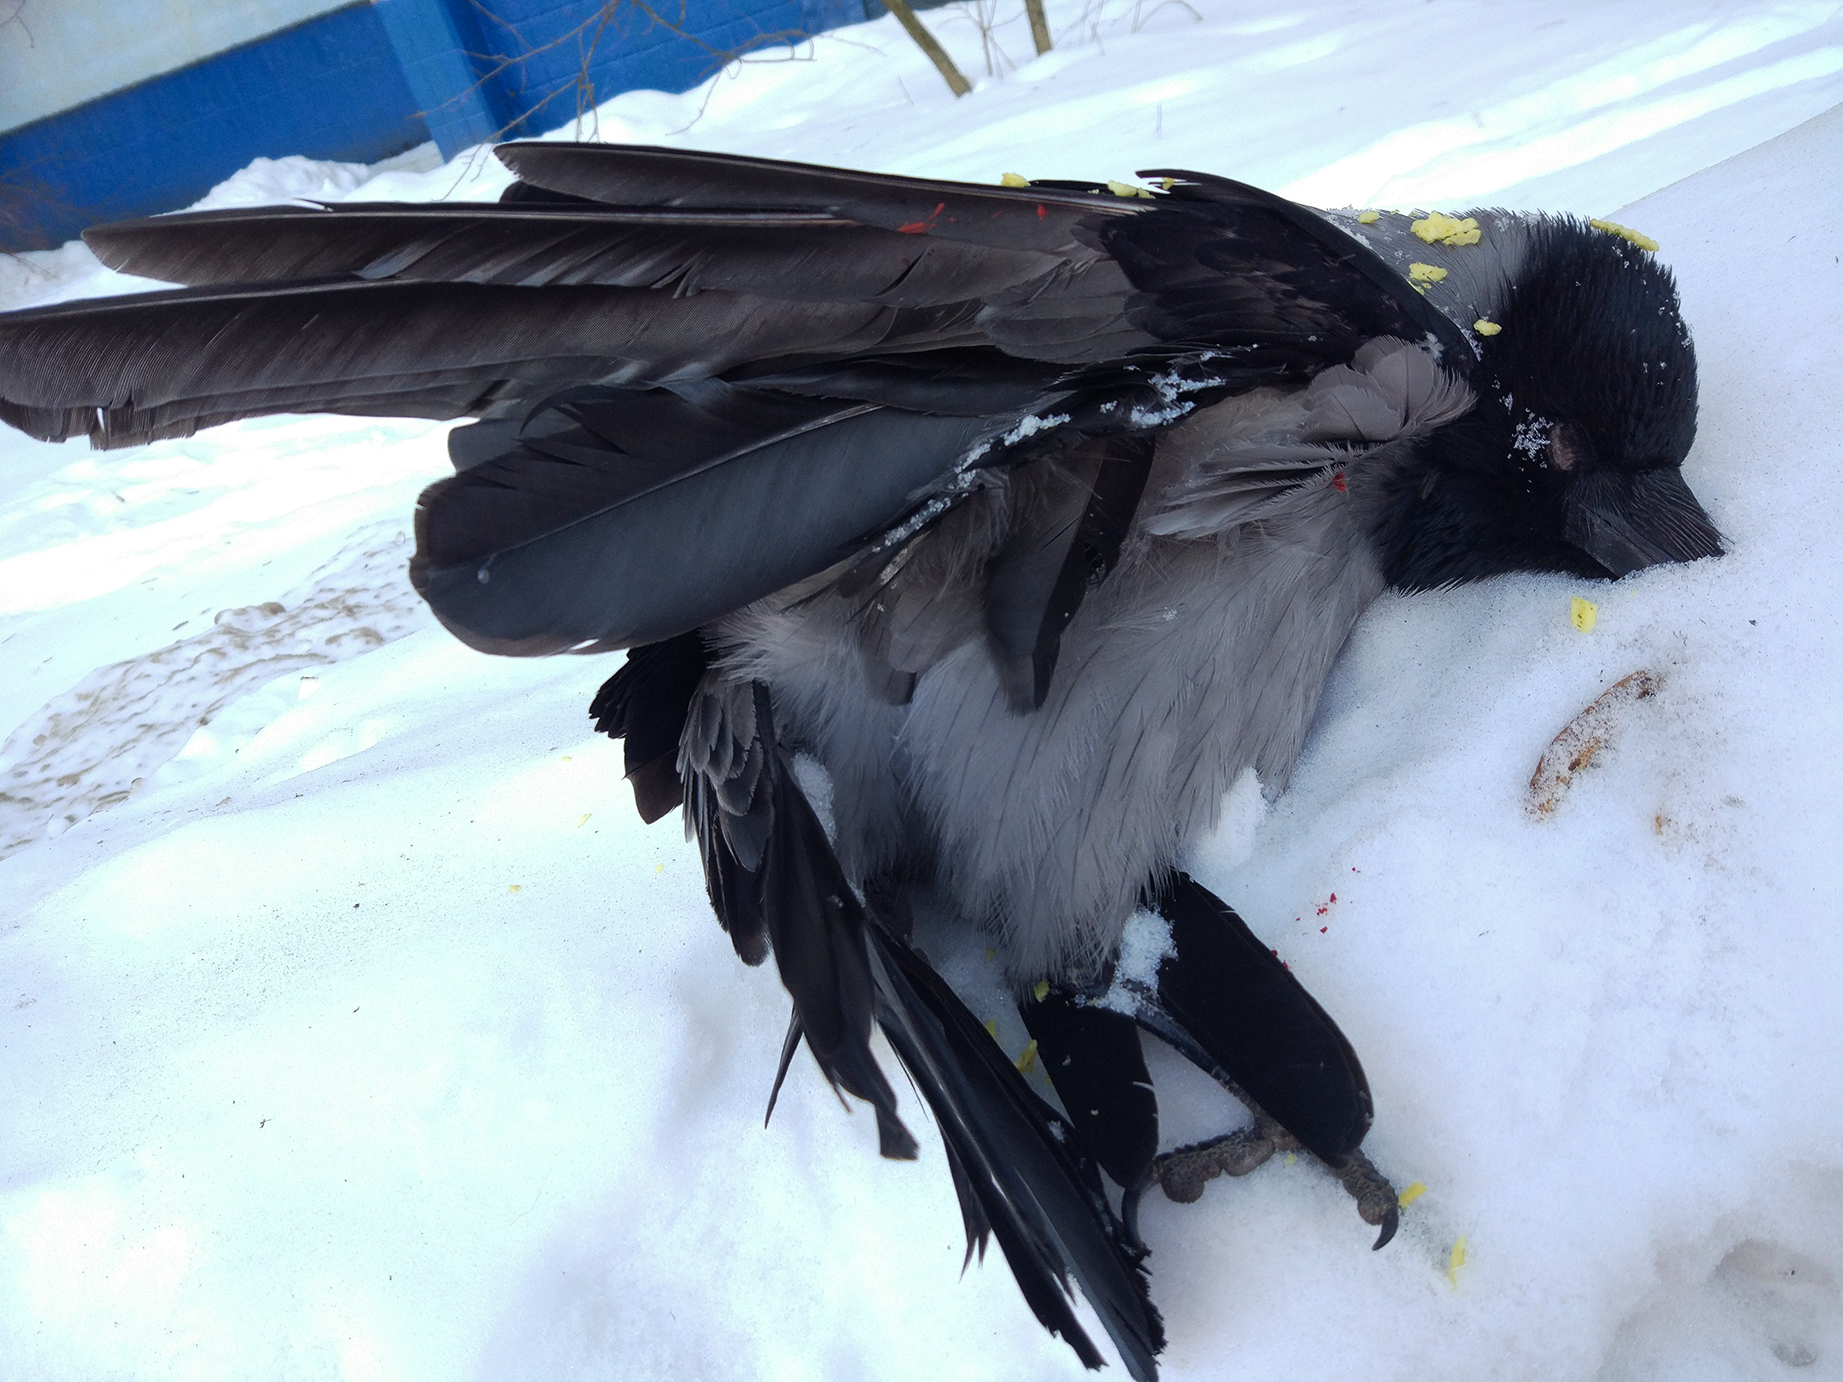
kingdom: Animalia
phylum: Chordata
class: Aves
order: Passeriformes
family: Corvidae
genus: Corvus
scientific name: Corvus cornix
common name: Hooded crow
